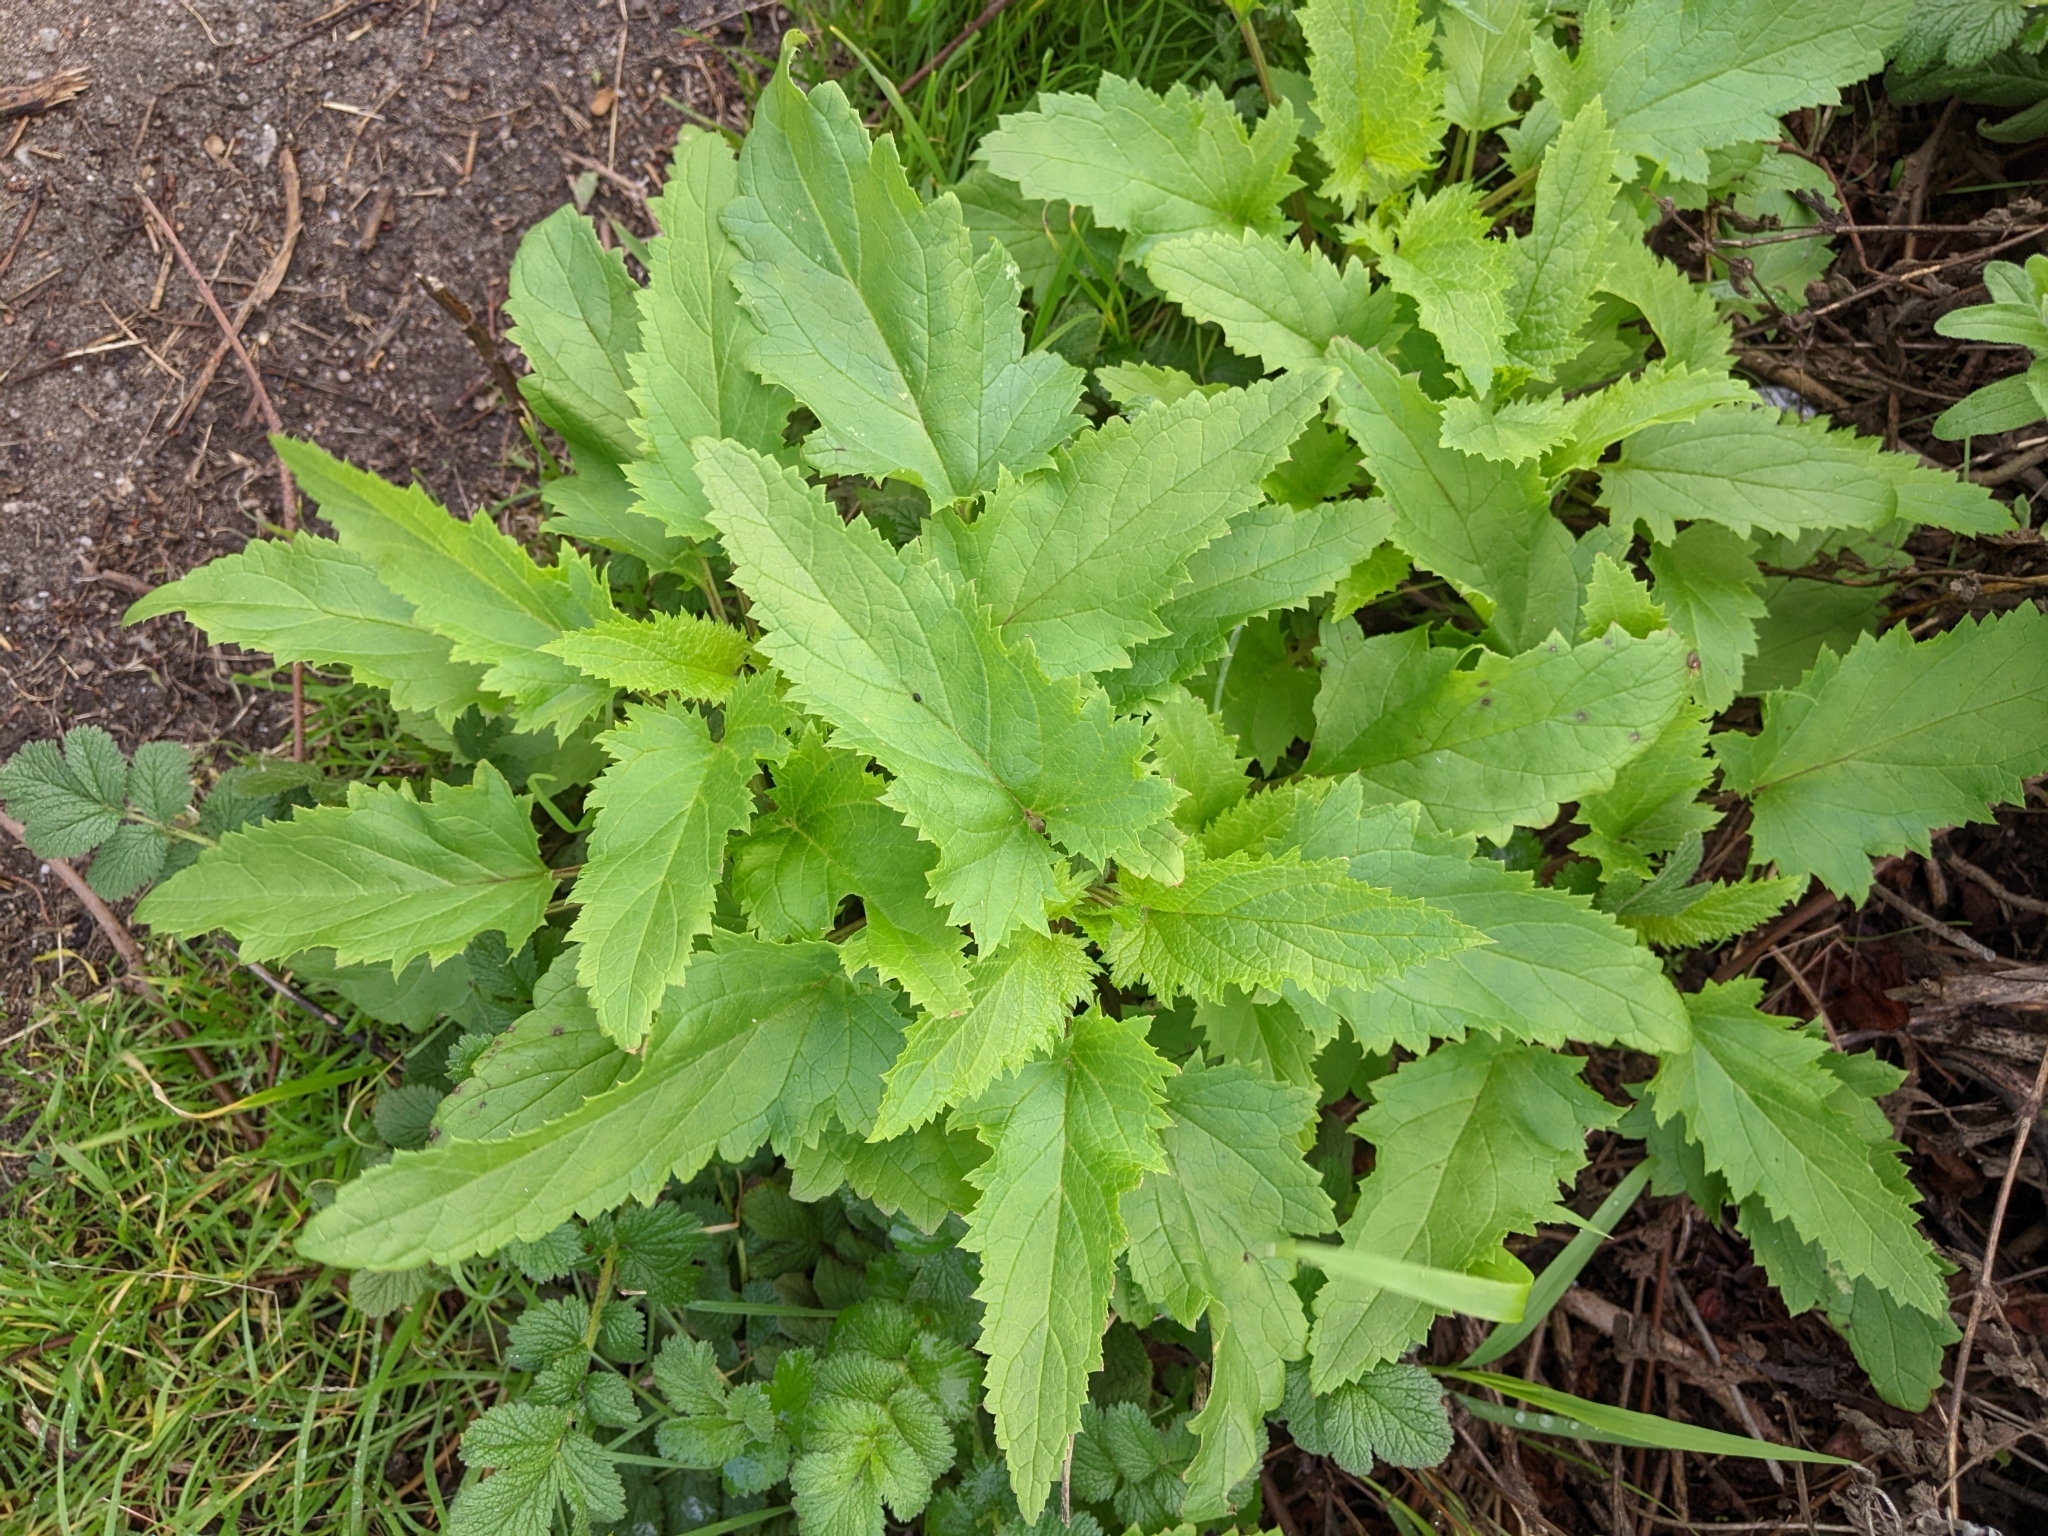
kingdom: Plantae
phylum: Tracheophyta
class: Magnoliopsida
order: Lamiales
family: Scrophulariaceae
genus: Scrophularia
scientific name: Scrophularia californica
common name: California figwort
